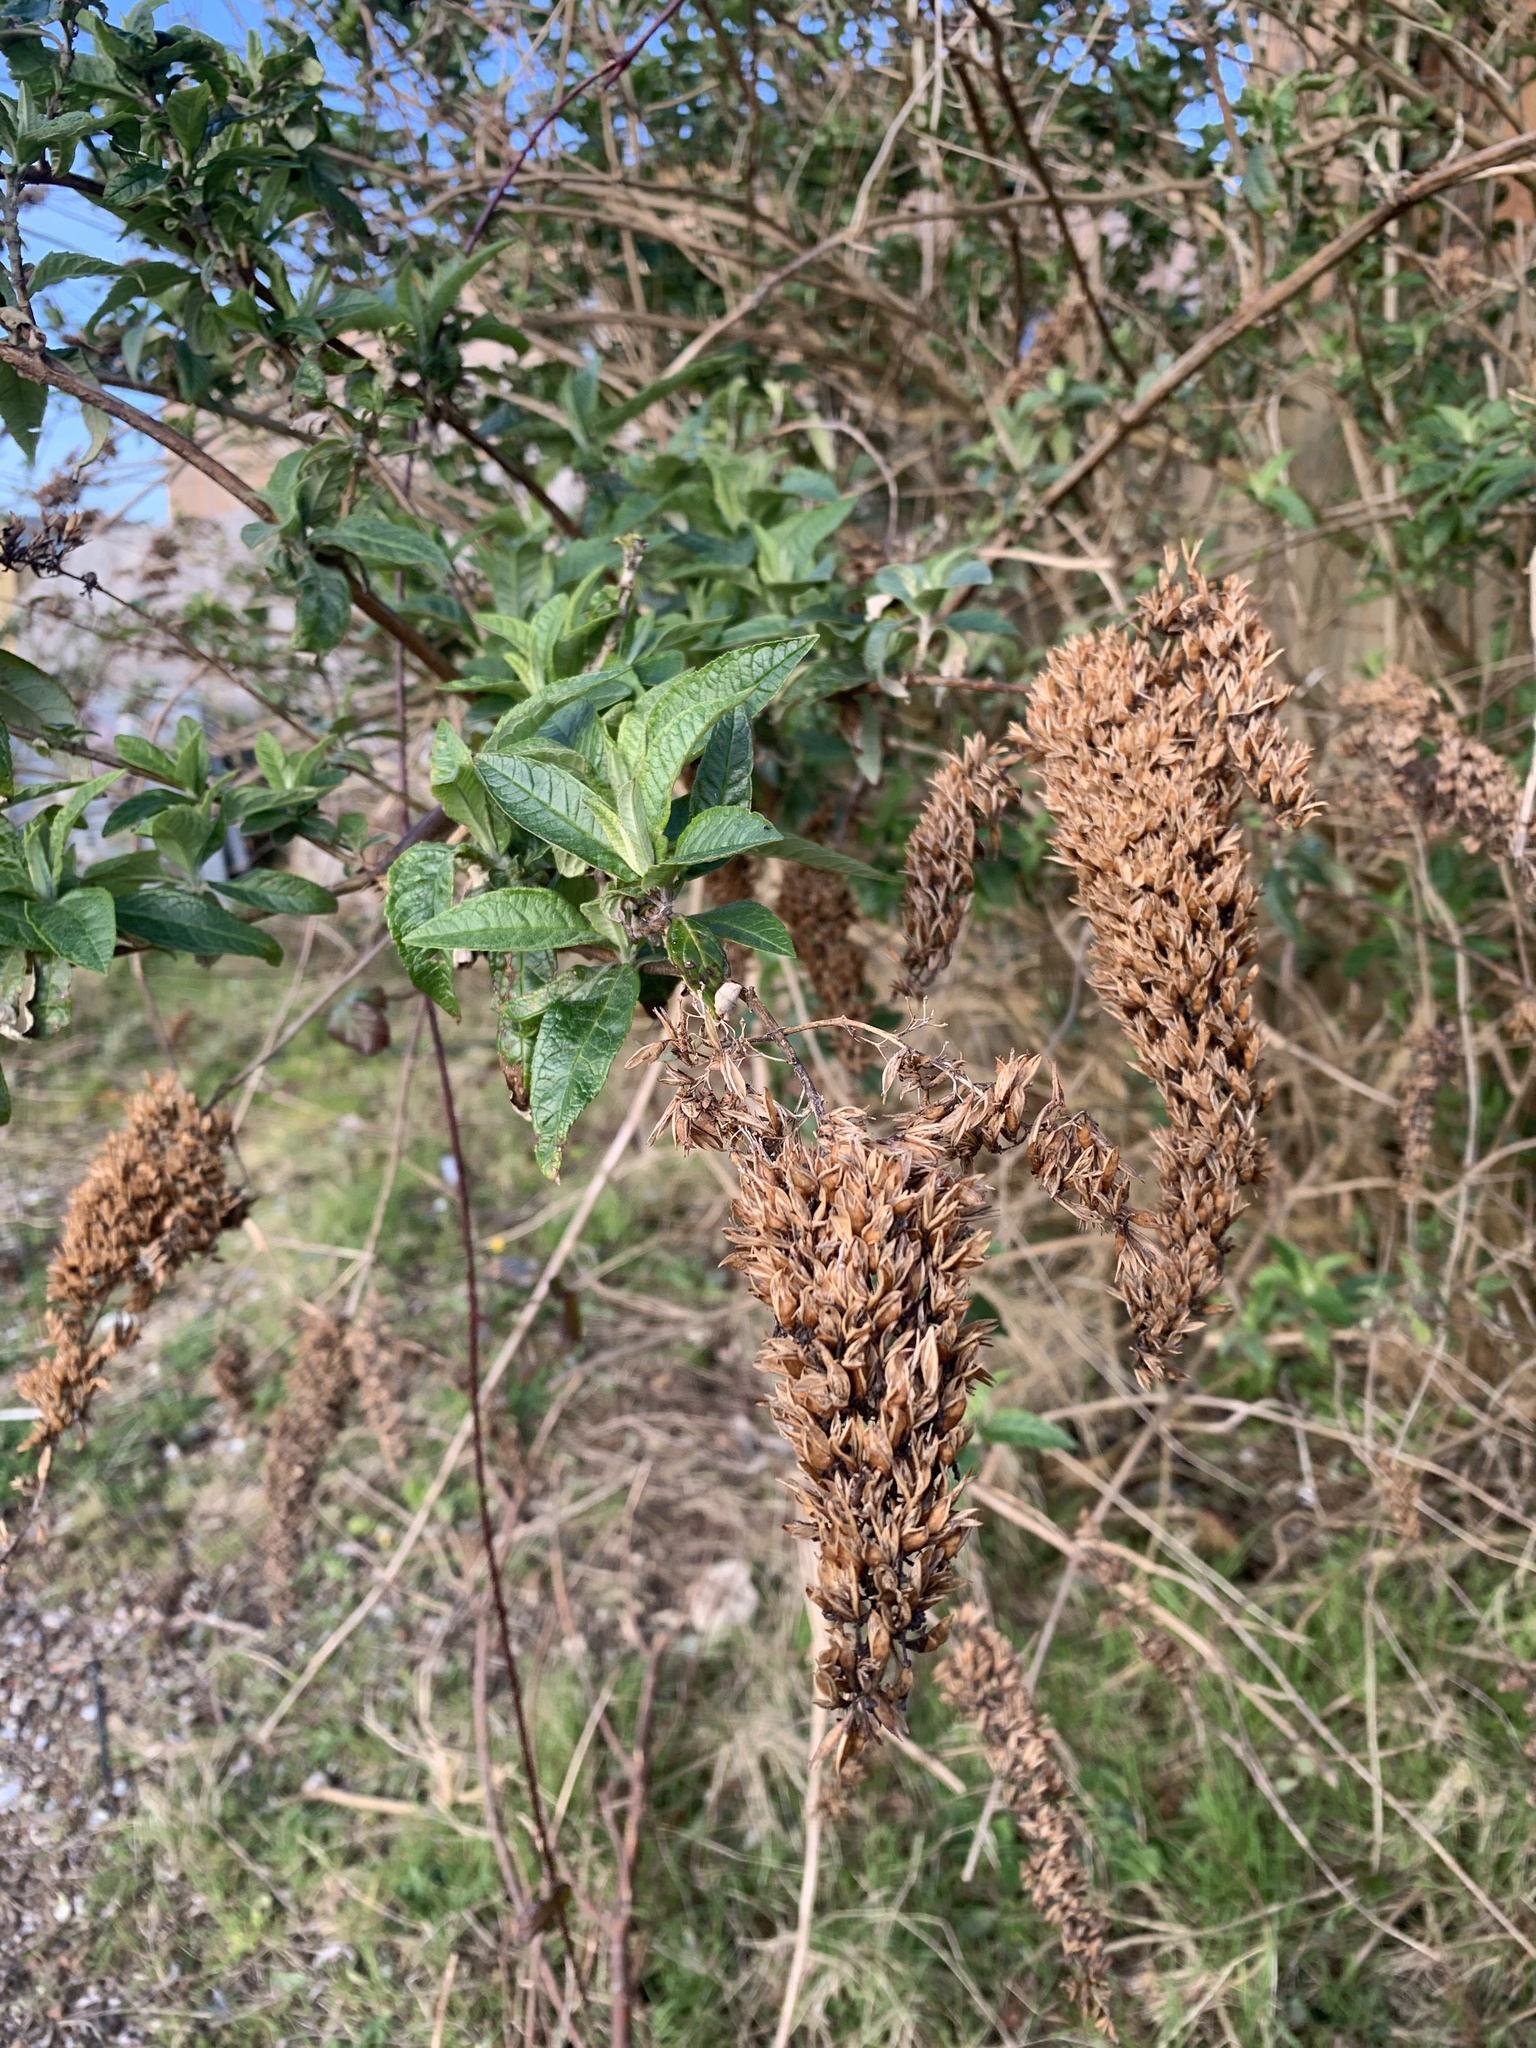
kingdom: Plantae
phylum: Tracheophyta
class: Magnoliopsida
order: Lamiales
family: Scrophulariaceae
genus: Buddleja
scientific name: Buddleja davidii
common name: Butterfly-bush
